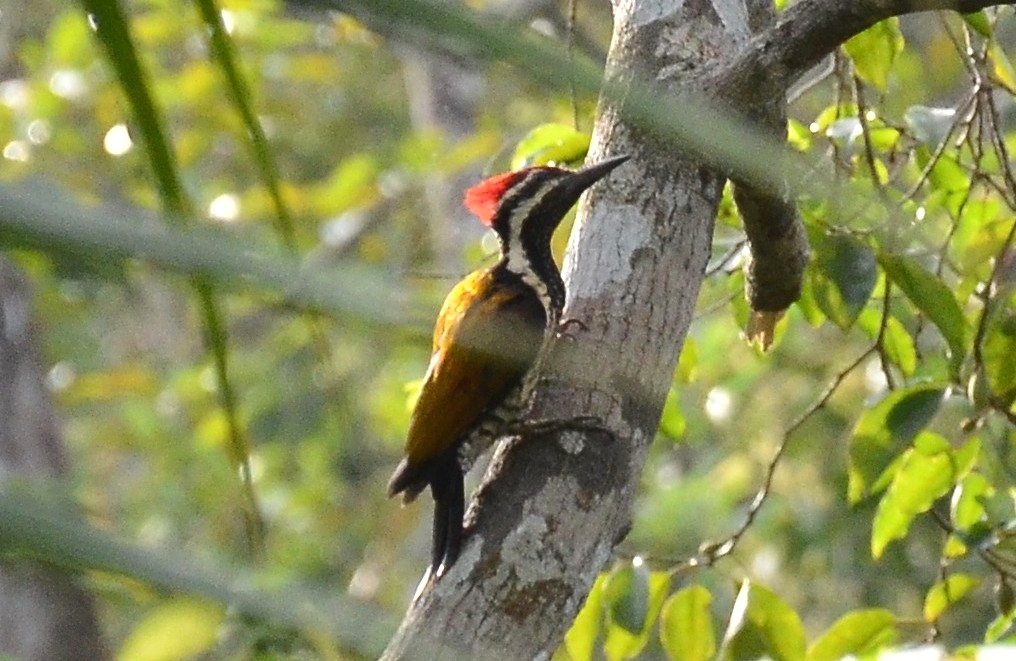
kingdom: Animalia
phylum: Chordata
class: Aves
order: Piciformes
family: Picidae
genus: Dinopium
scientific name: Dinopium benghalense
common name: Black-rumped flameback
